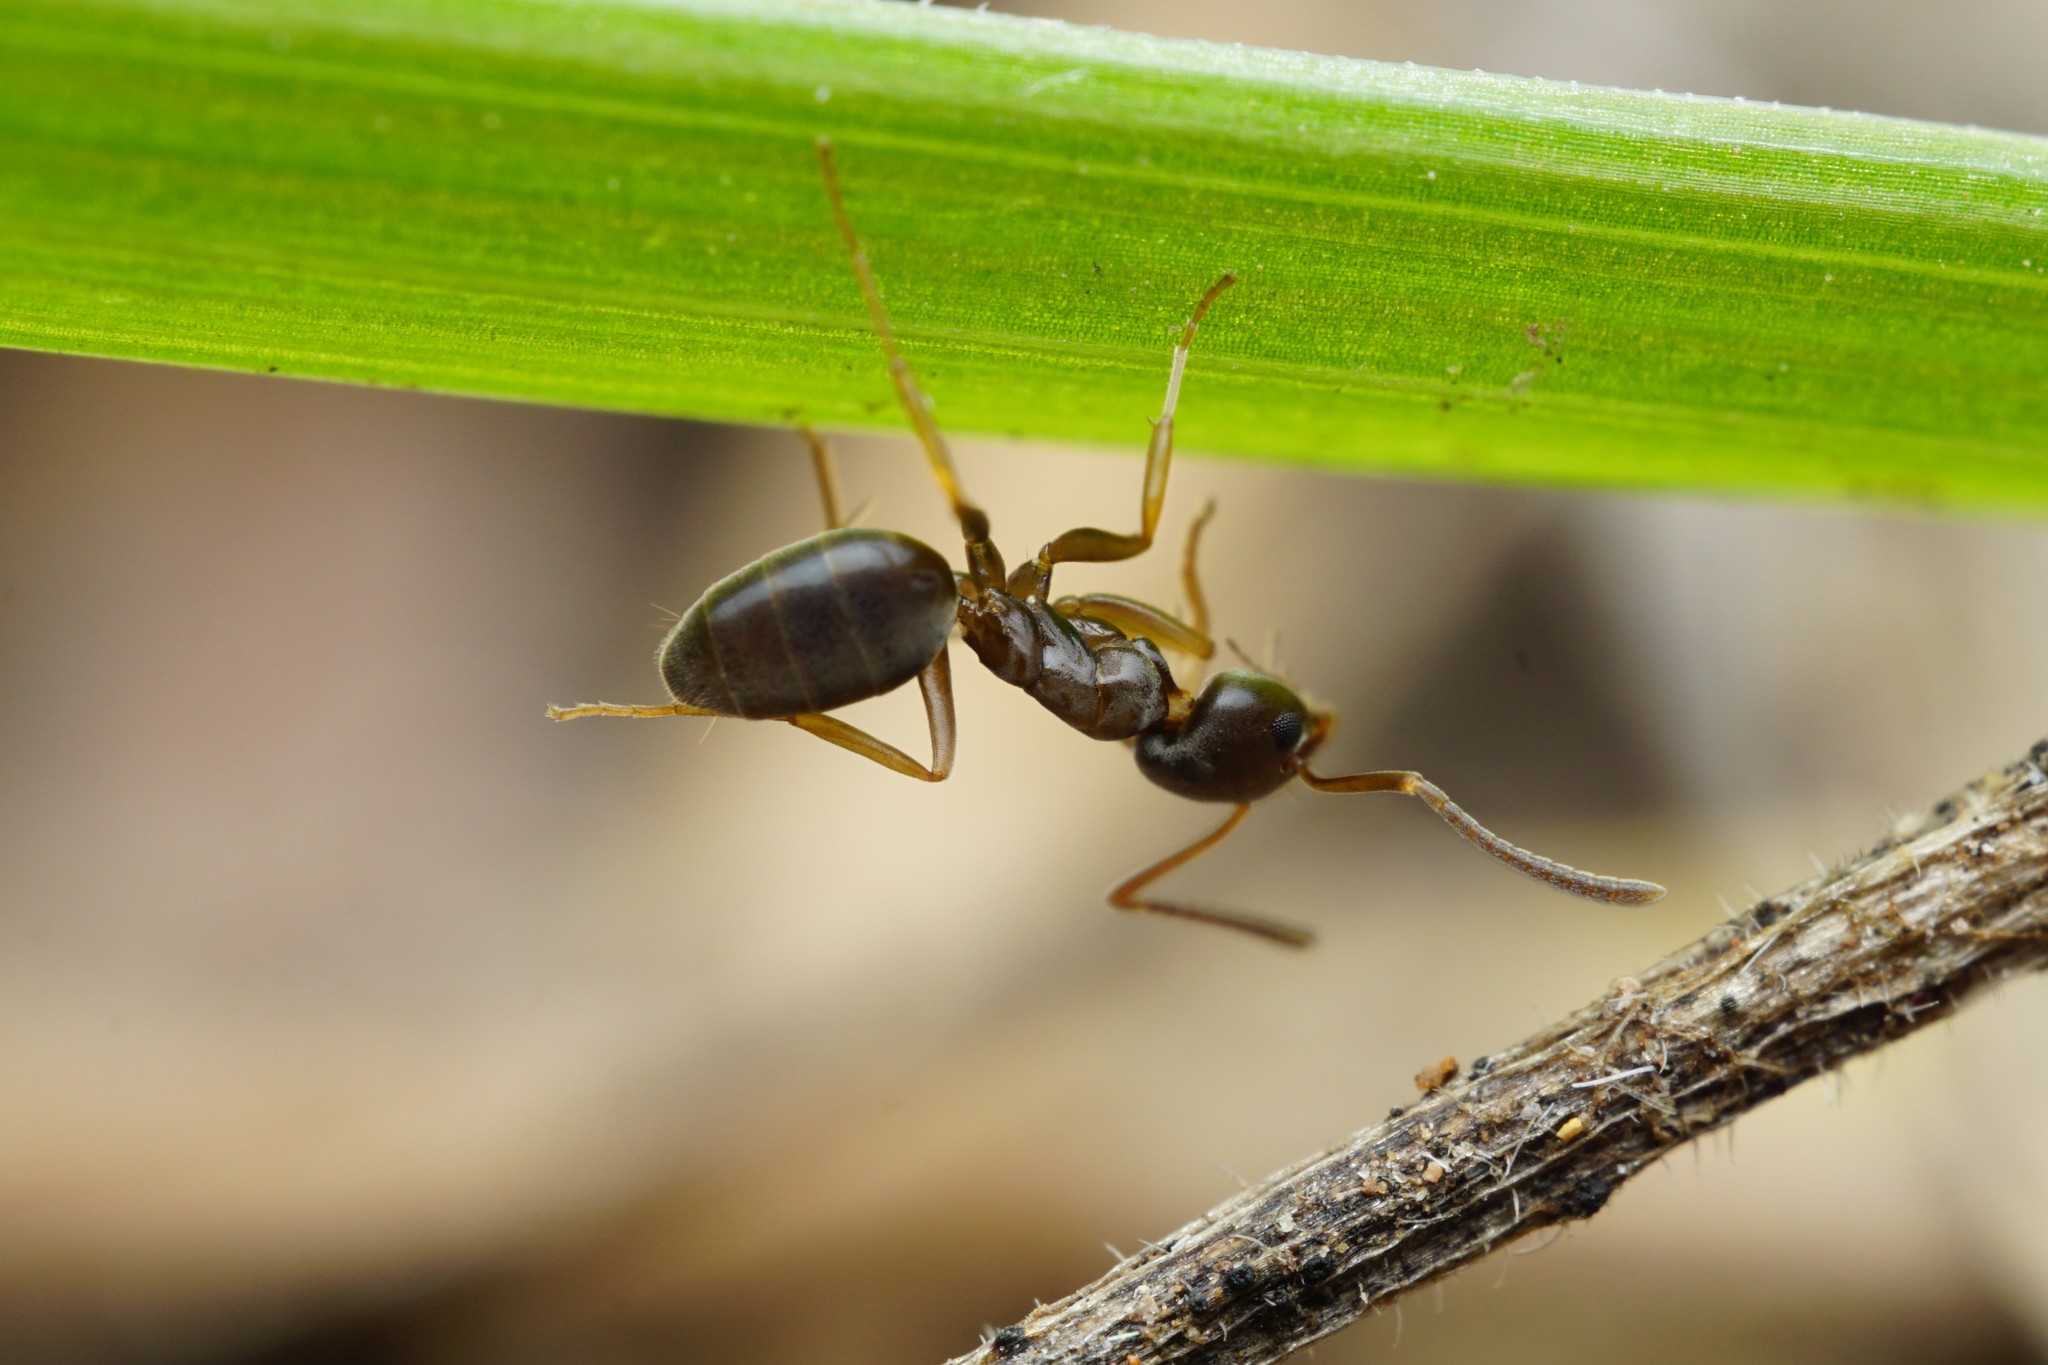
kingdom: Animalia
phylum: Arthropoda
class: Insecta
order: Hymenoptera
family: Formicidae
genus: Tapinoma
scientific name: Tapinoma sessile
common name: Odorous house ant
